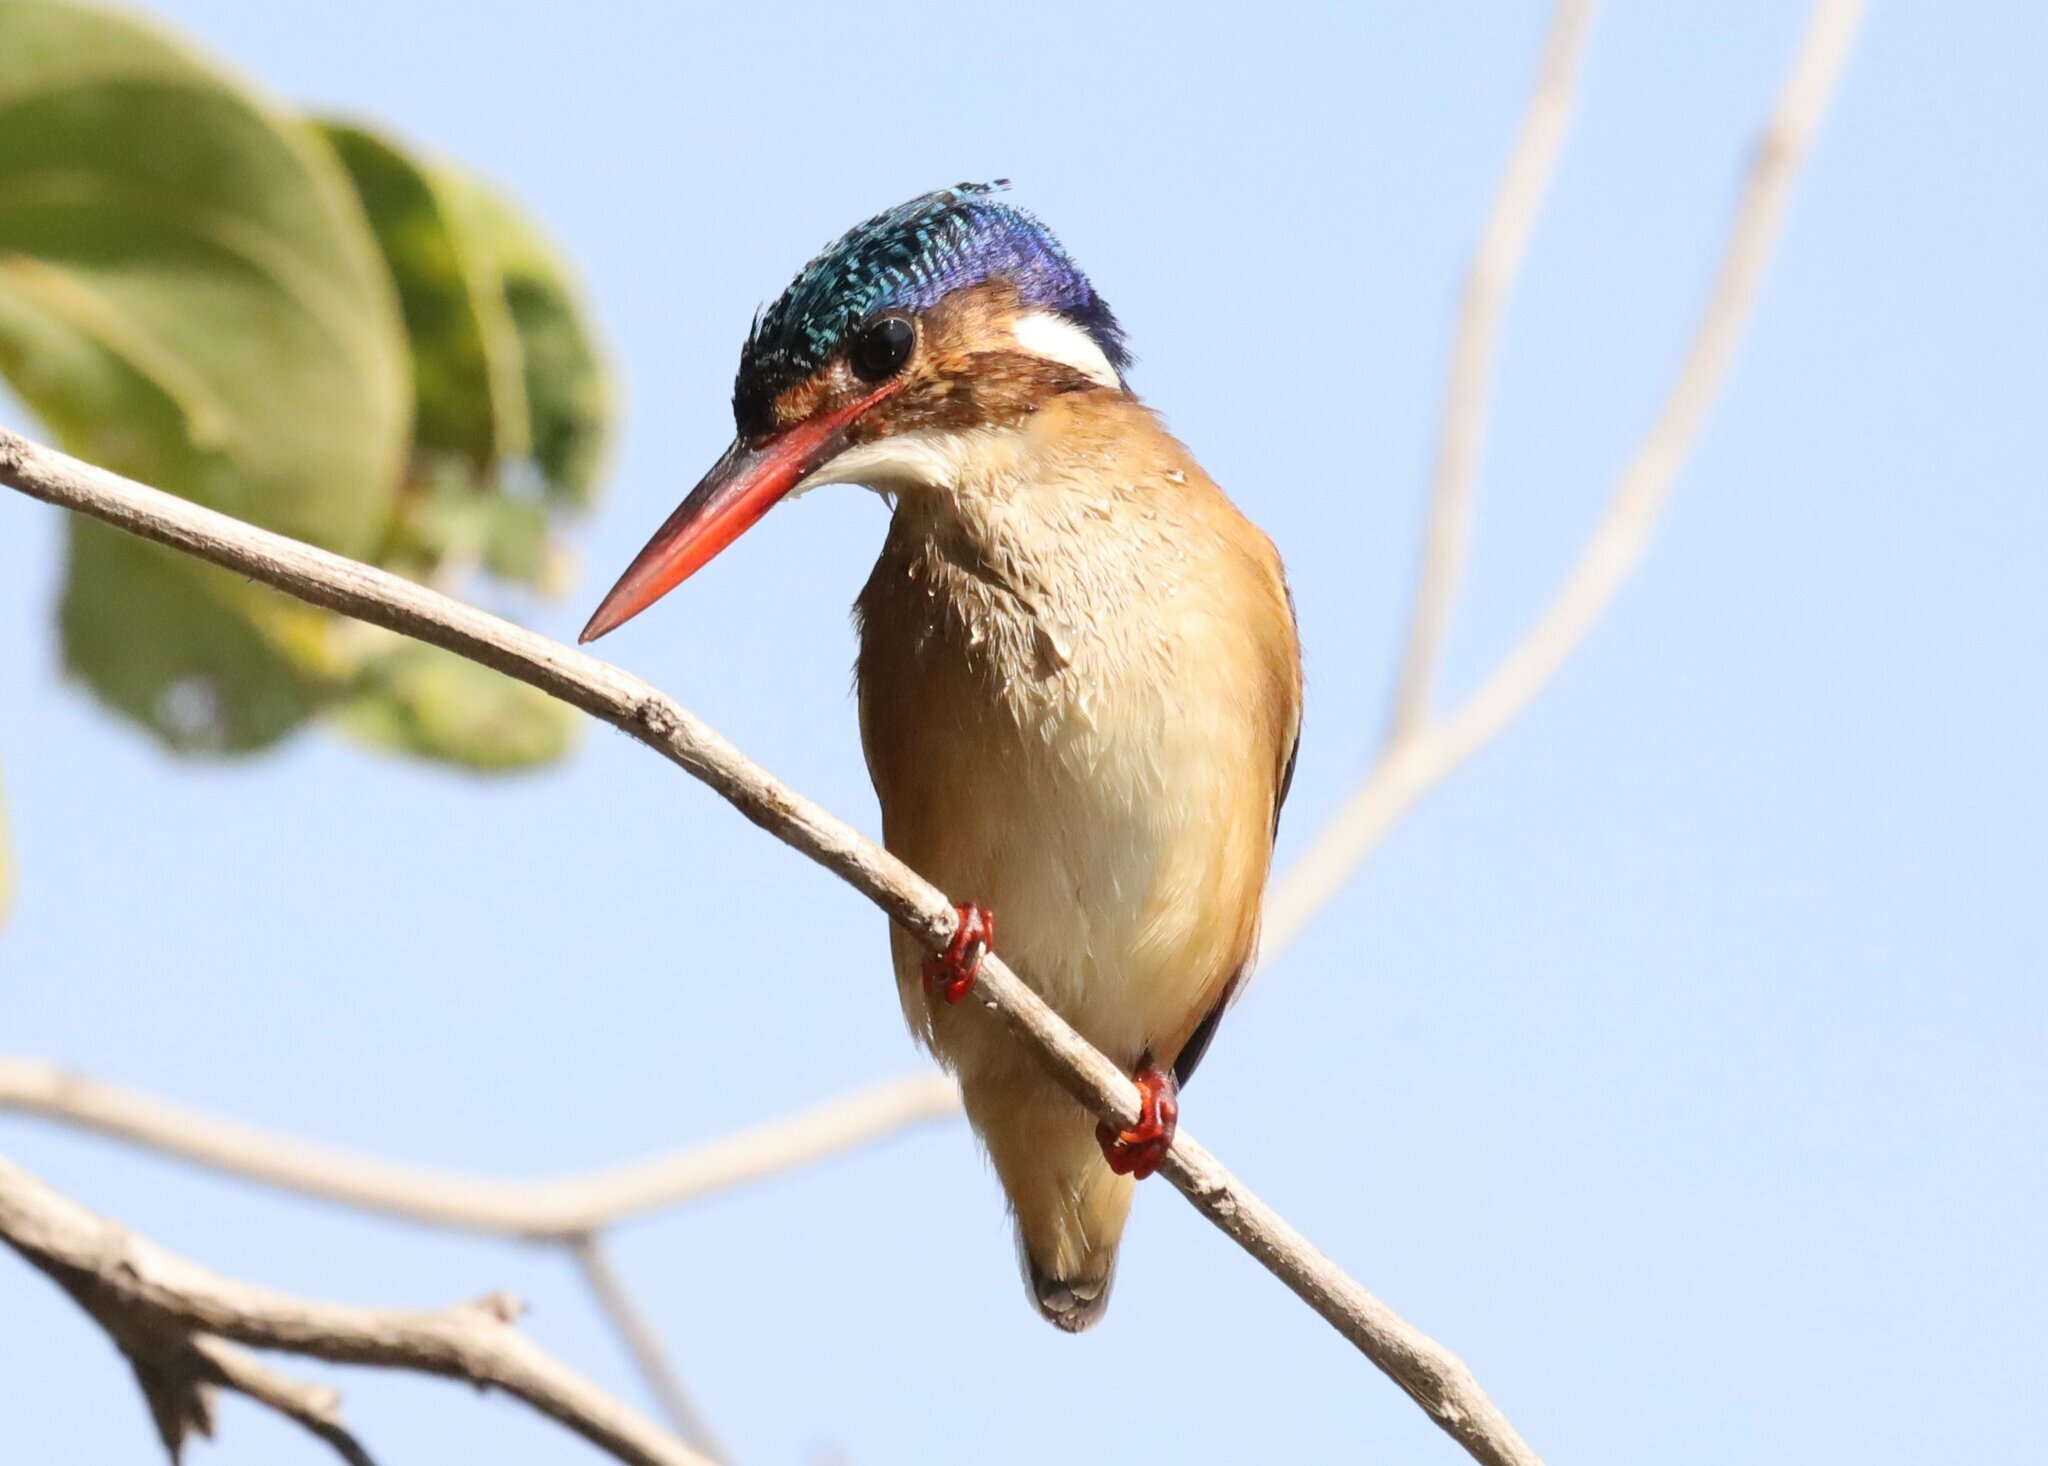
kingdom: Animalia
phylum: Chordata
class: Aves
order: Coraciiformes
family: Alcedinidae
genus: Corythornis
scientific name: Corythornis cristatus
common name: Malachite kingfisher
